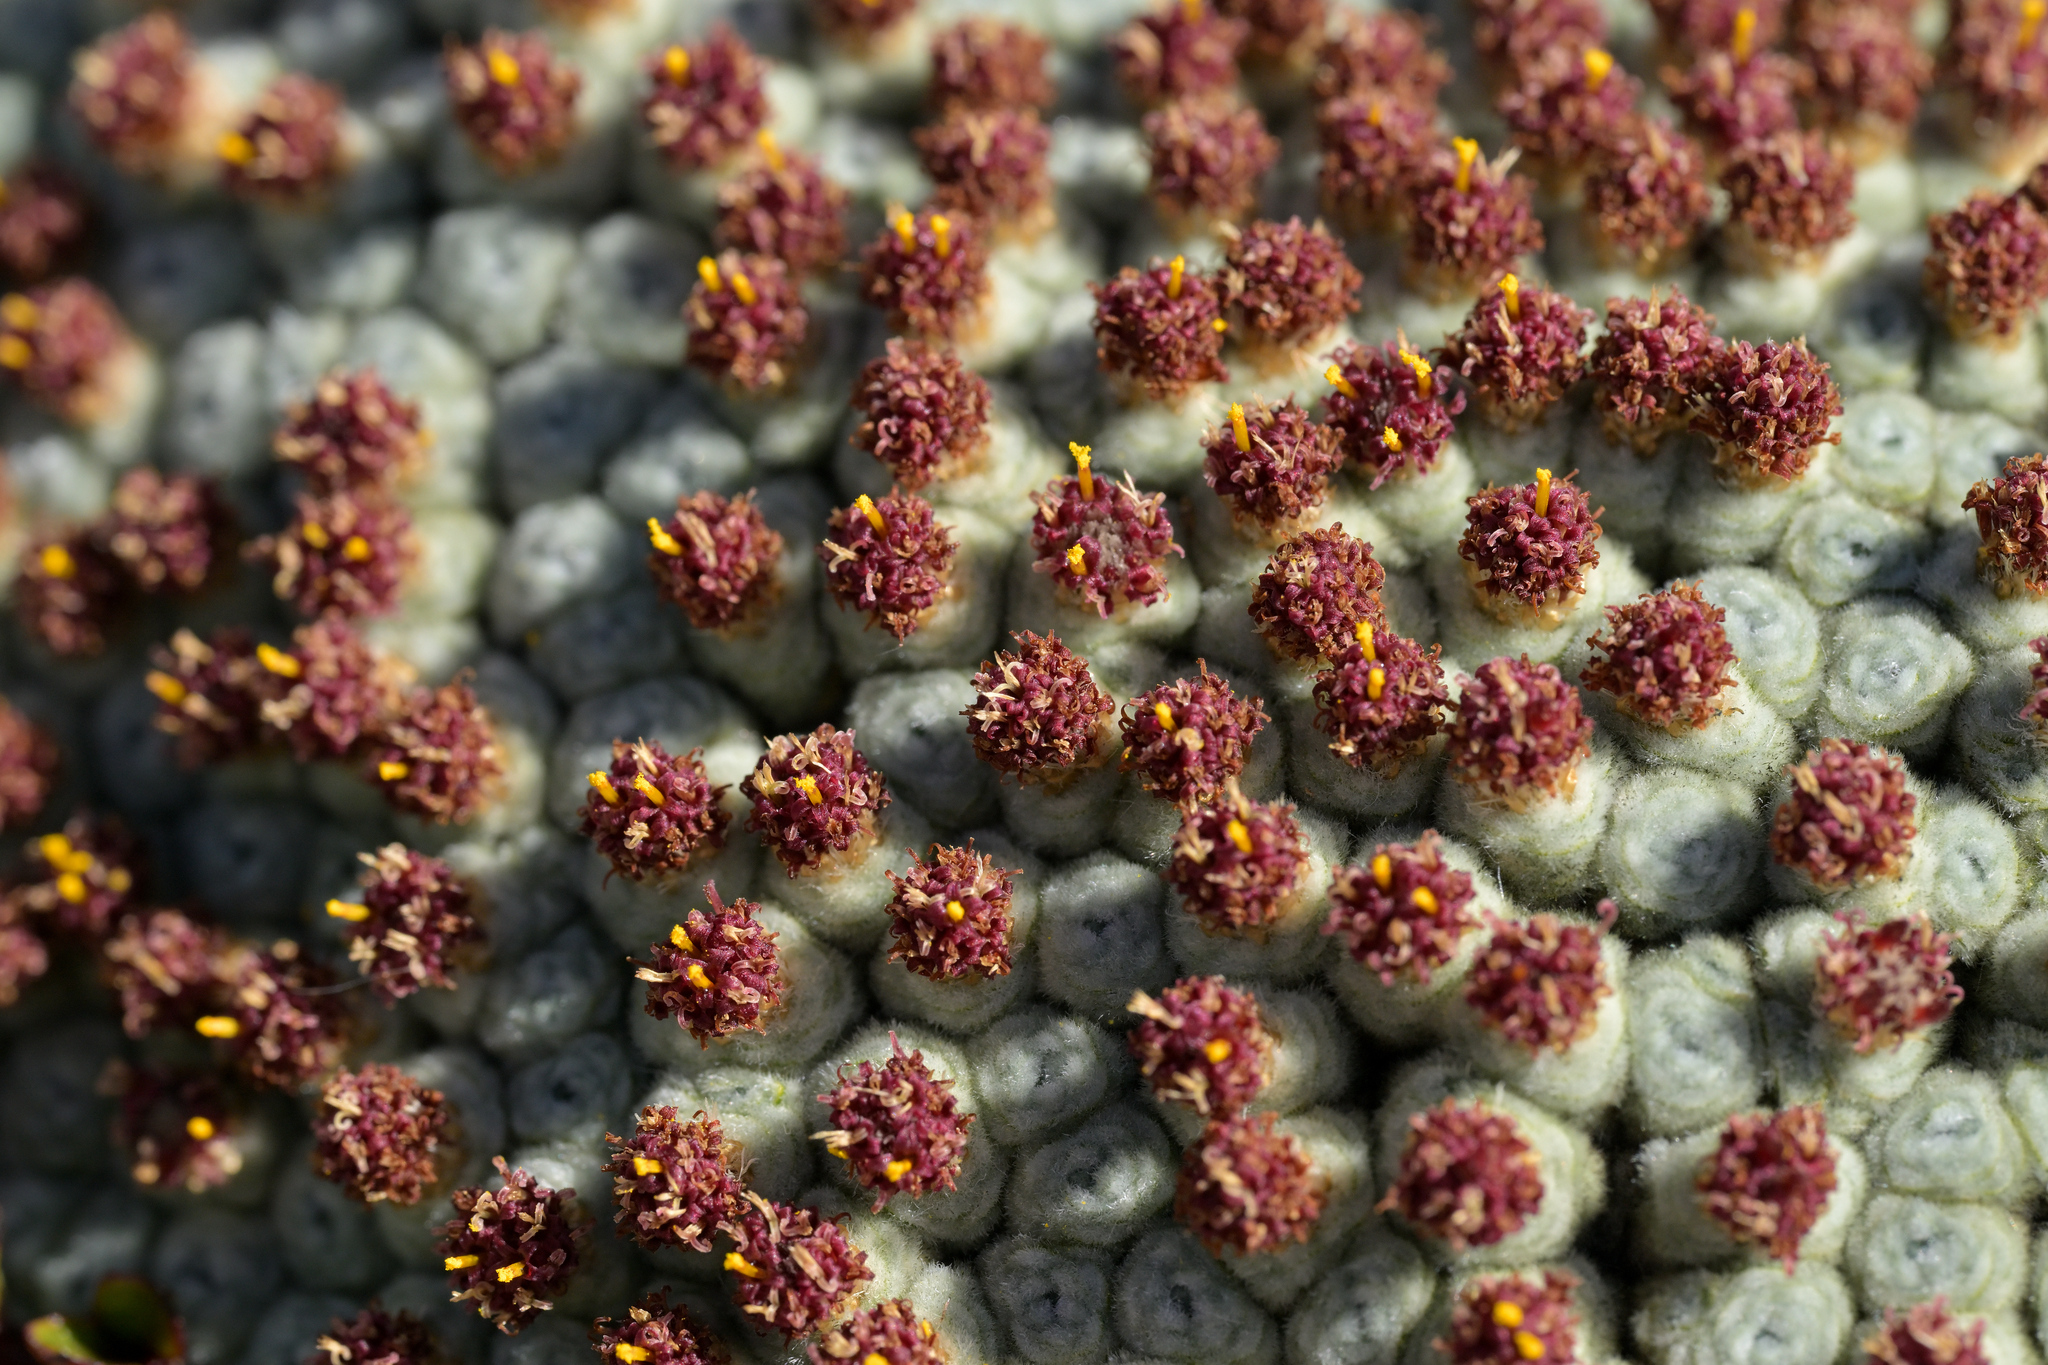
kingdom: Plantae
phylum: Tracheophyta
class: Magnoliopsida
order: Asterales
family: Asteraceae
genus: Raoulia
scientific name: Raoulia eximia
